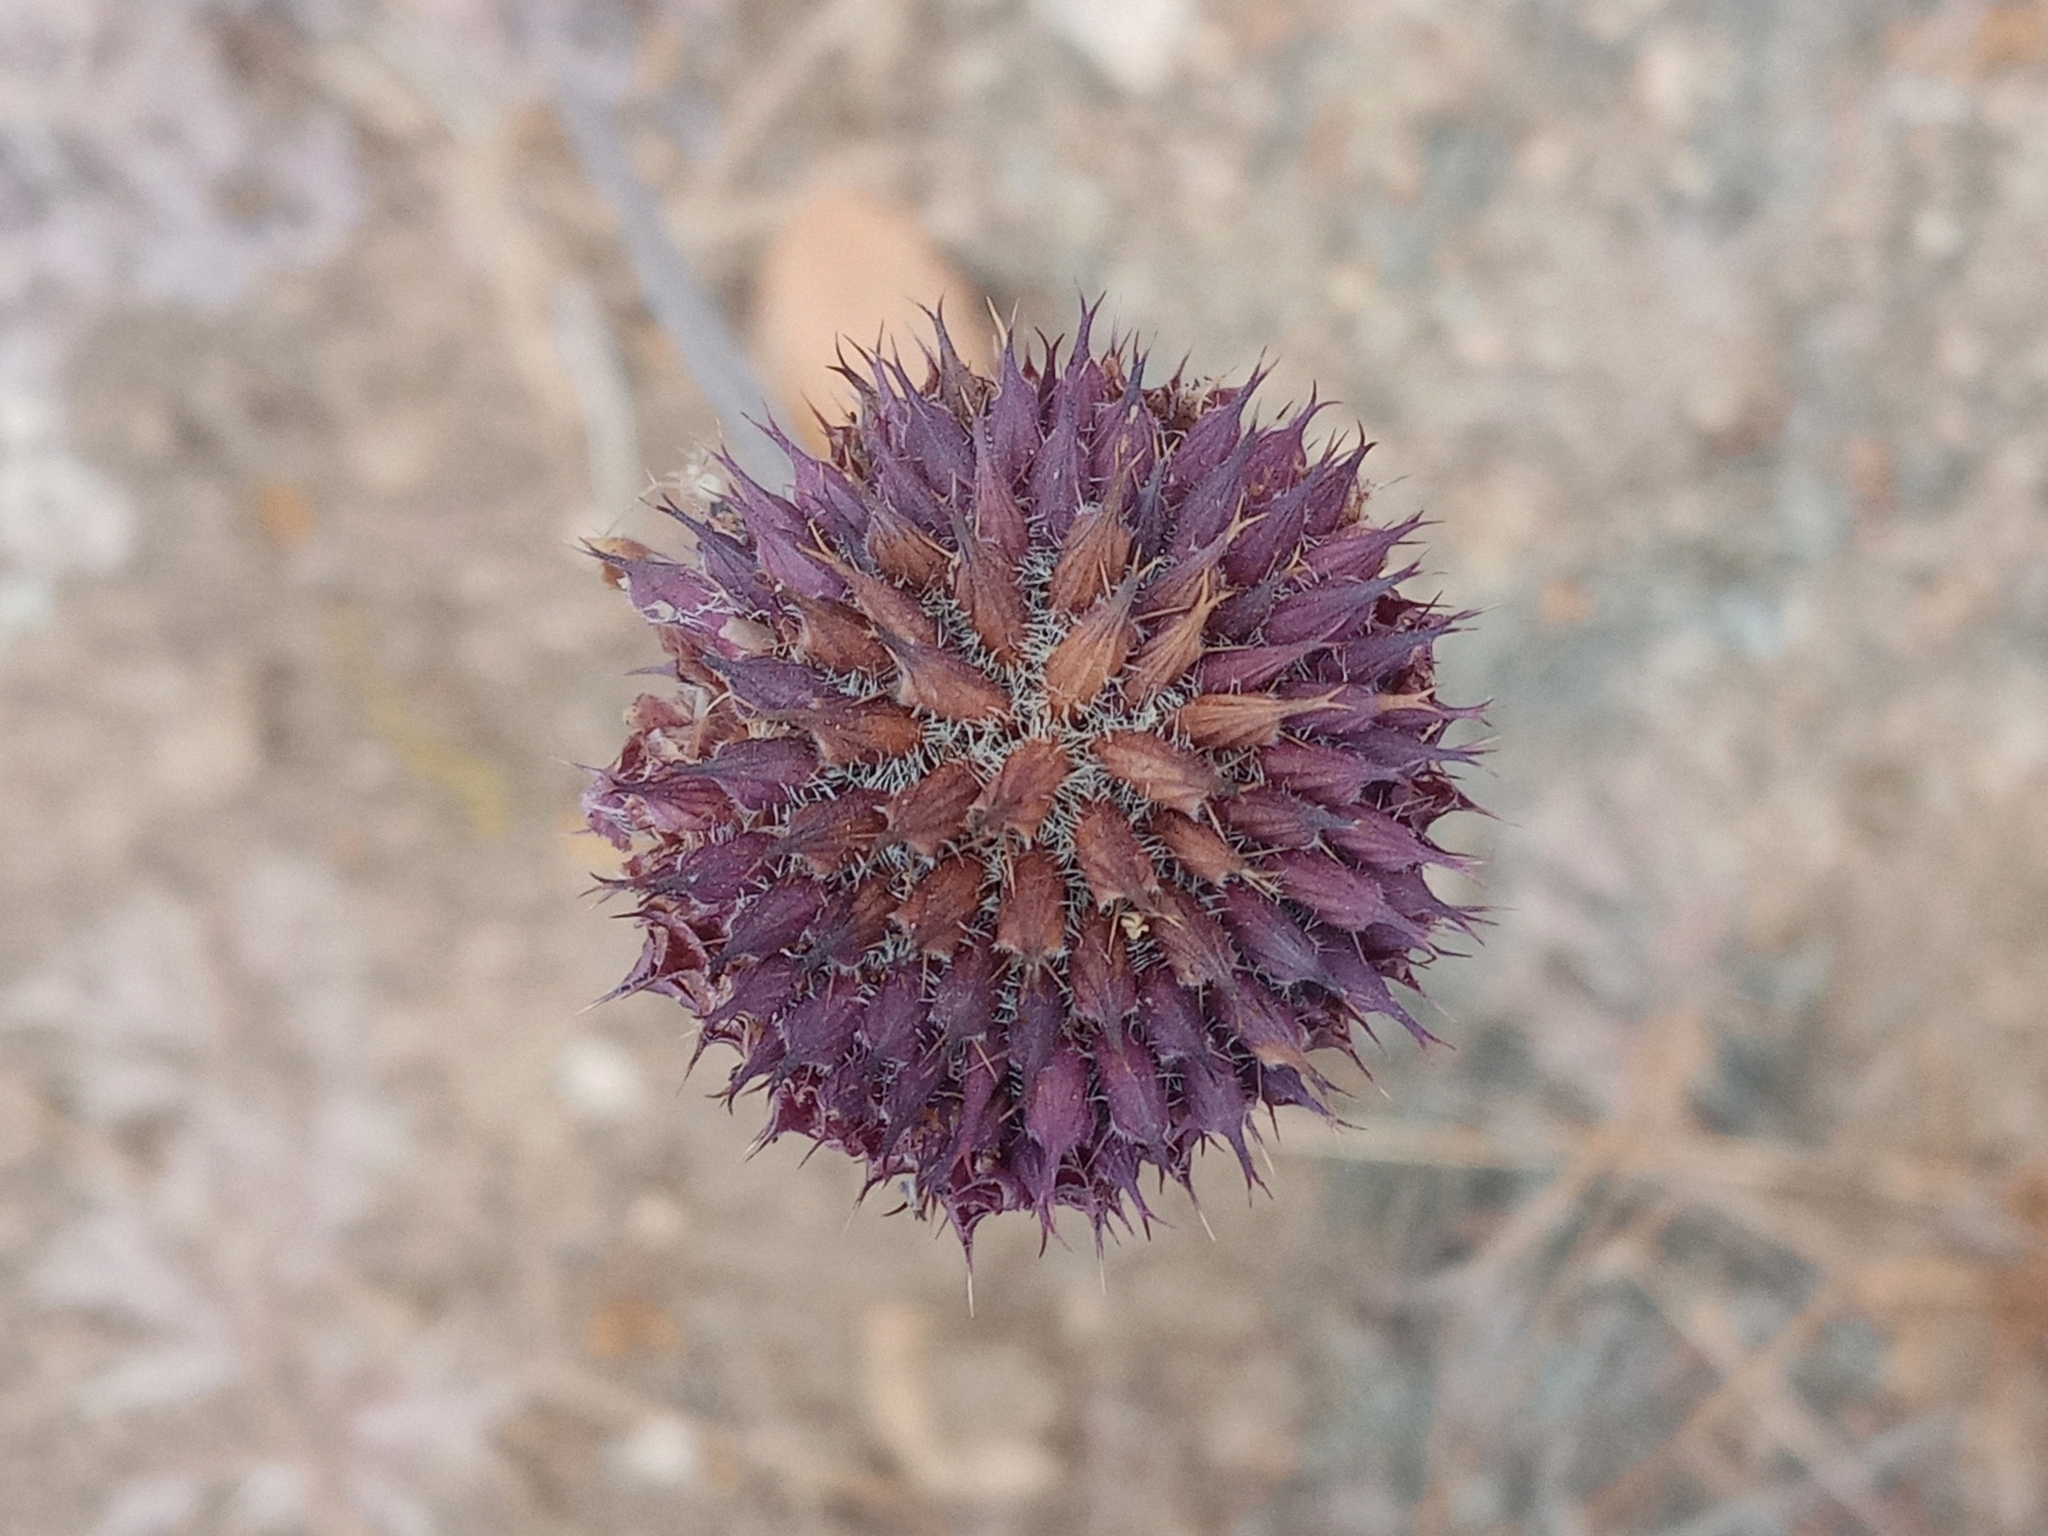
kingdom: Plantae
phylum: Tracheophyta
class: Magnoliopsida
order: Lamiales
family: Lamiaceae
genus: Salvia
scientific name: Salvia columbariae
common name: Chia
